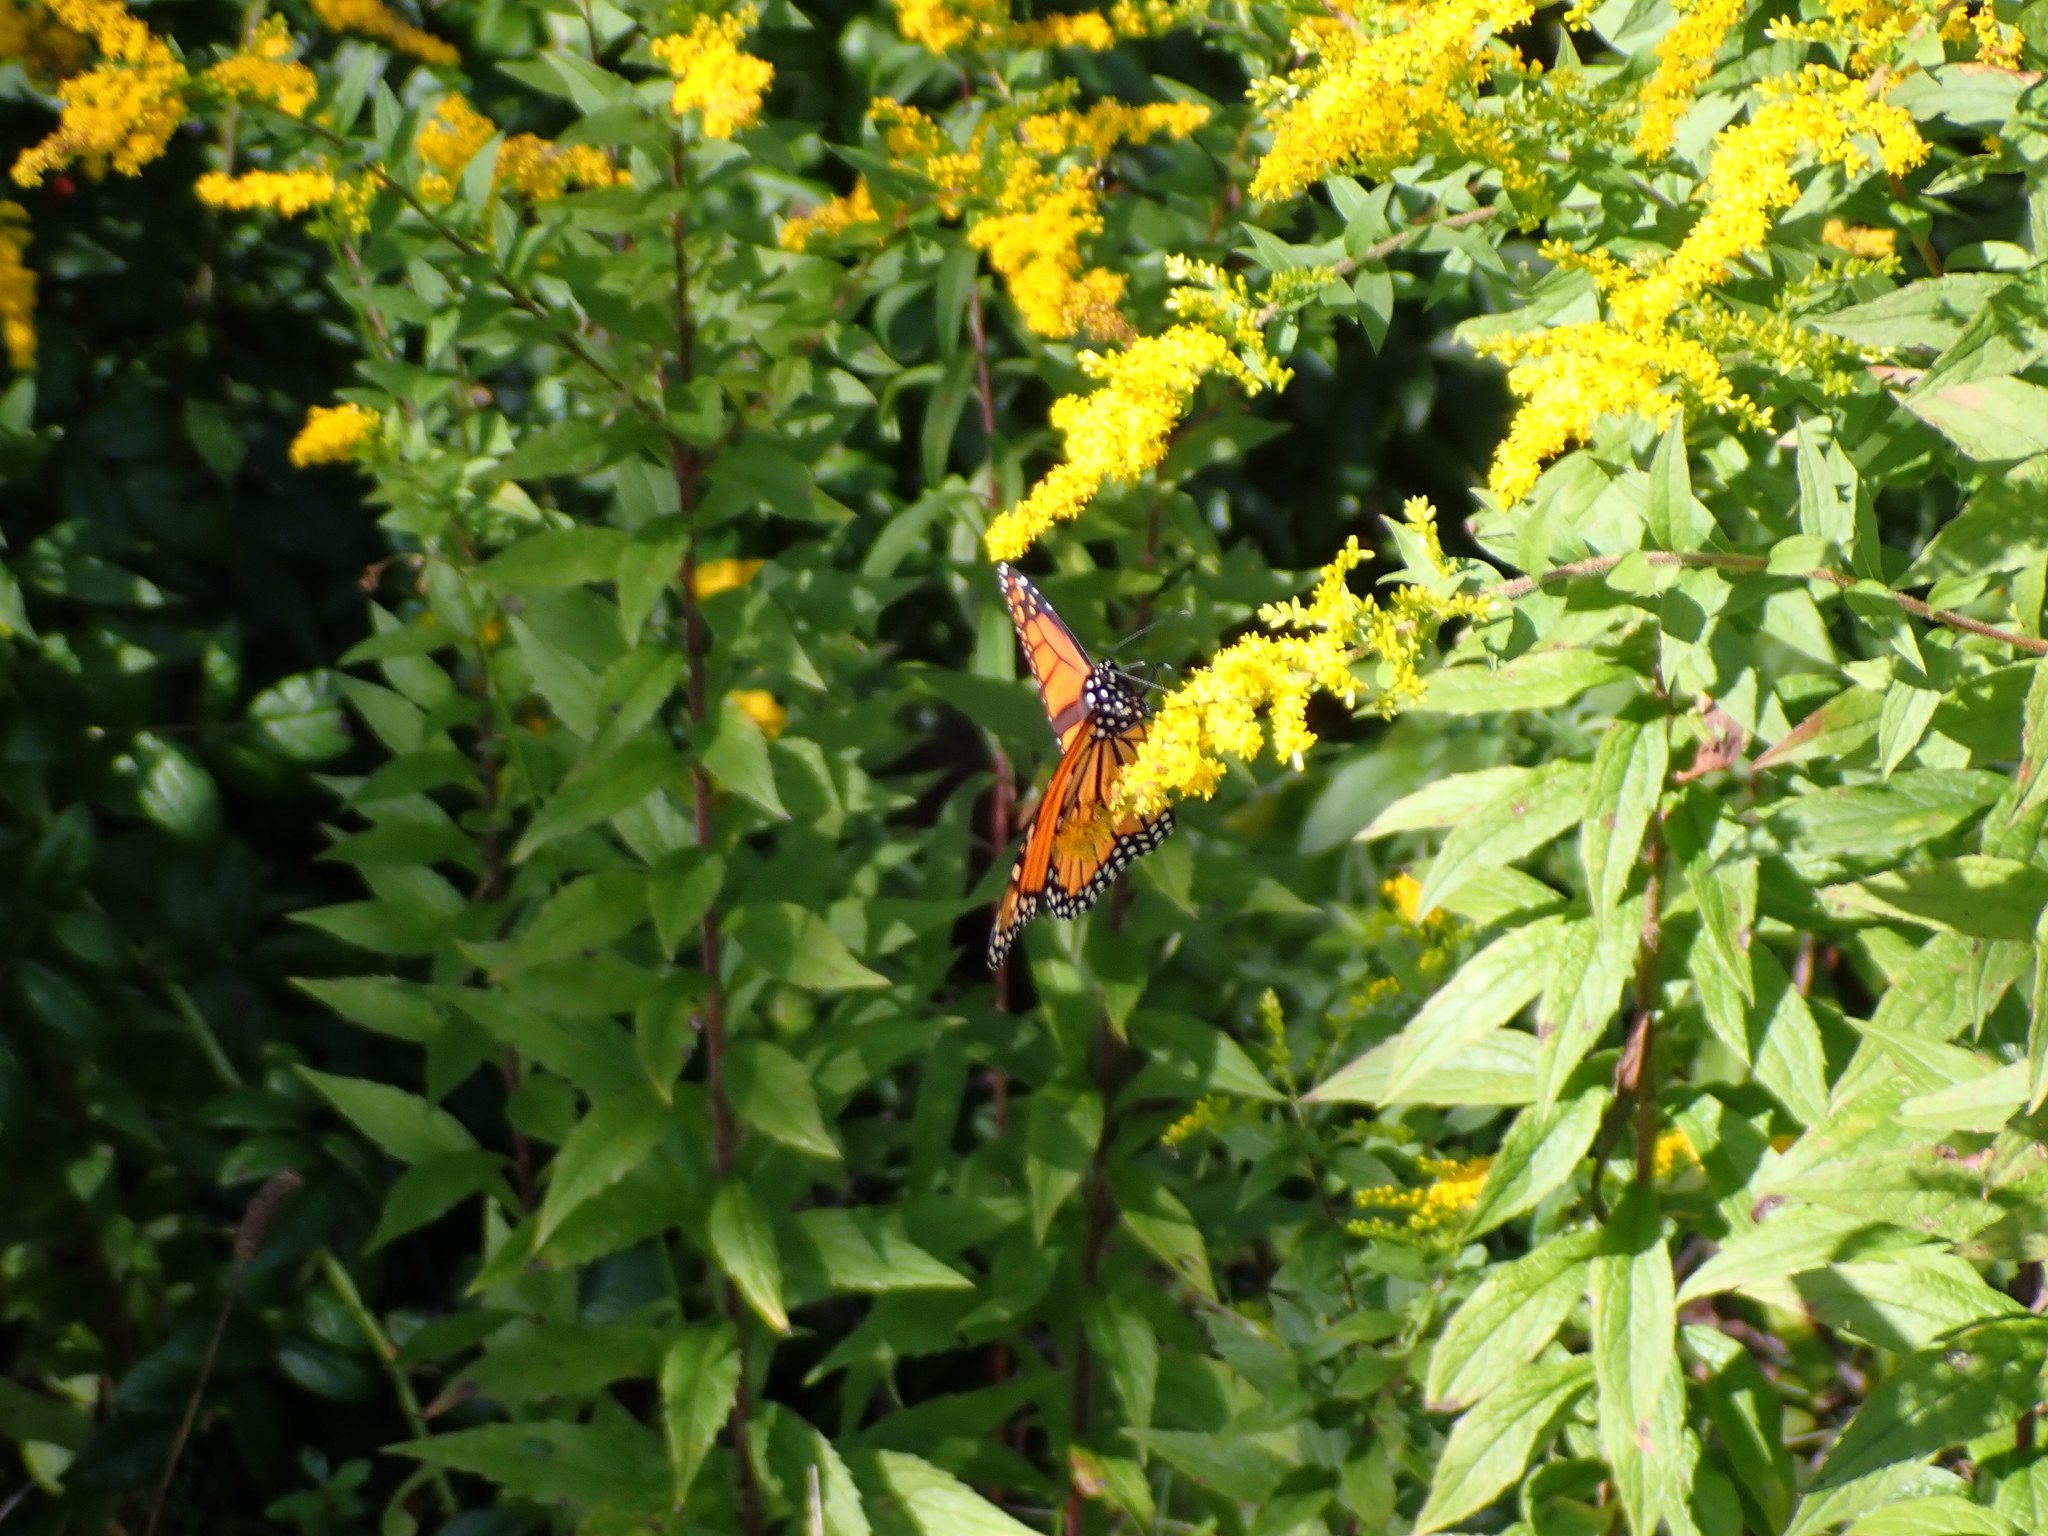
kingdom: Animalia
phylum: Arthropoda
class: Insecta
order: Lepidoptera
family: Nymphalidae
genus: Danaus
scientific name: Danaus plexippus
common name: Monarch
